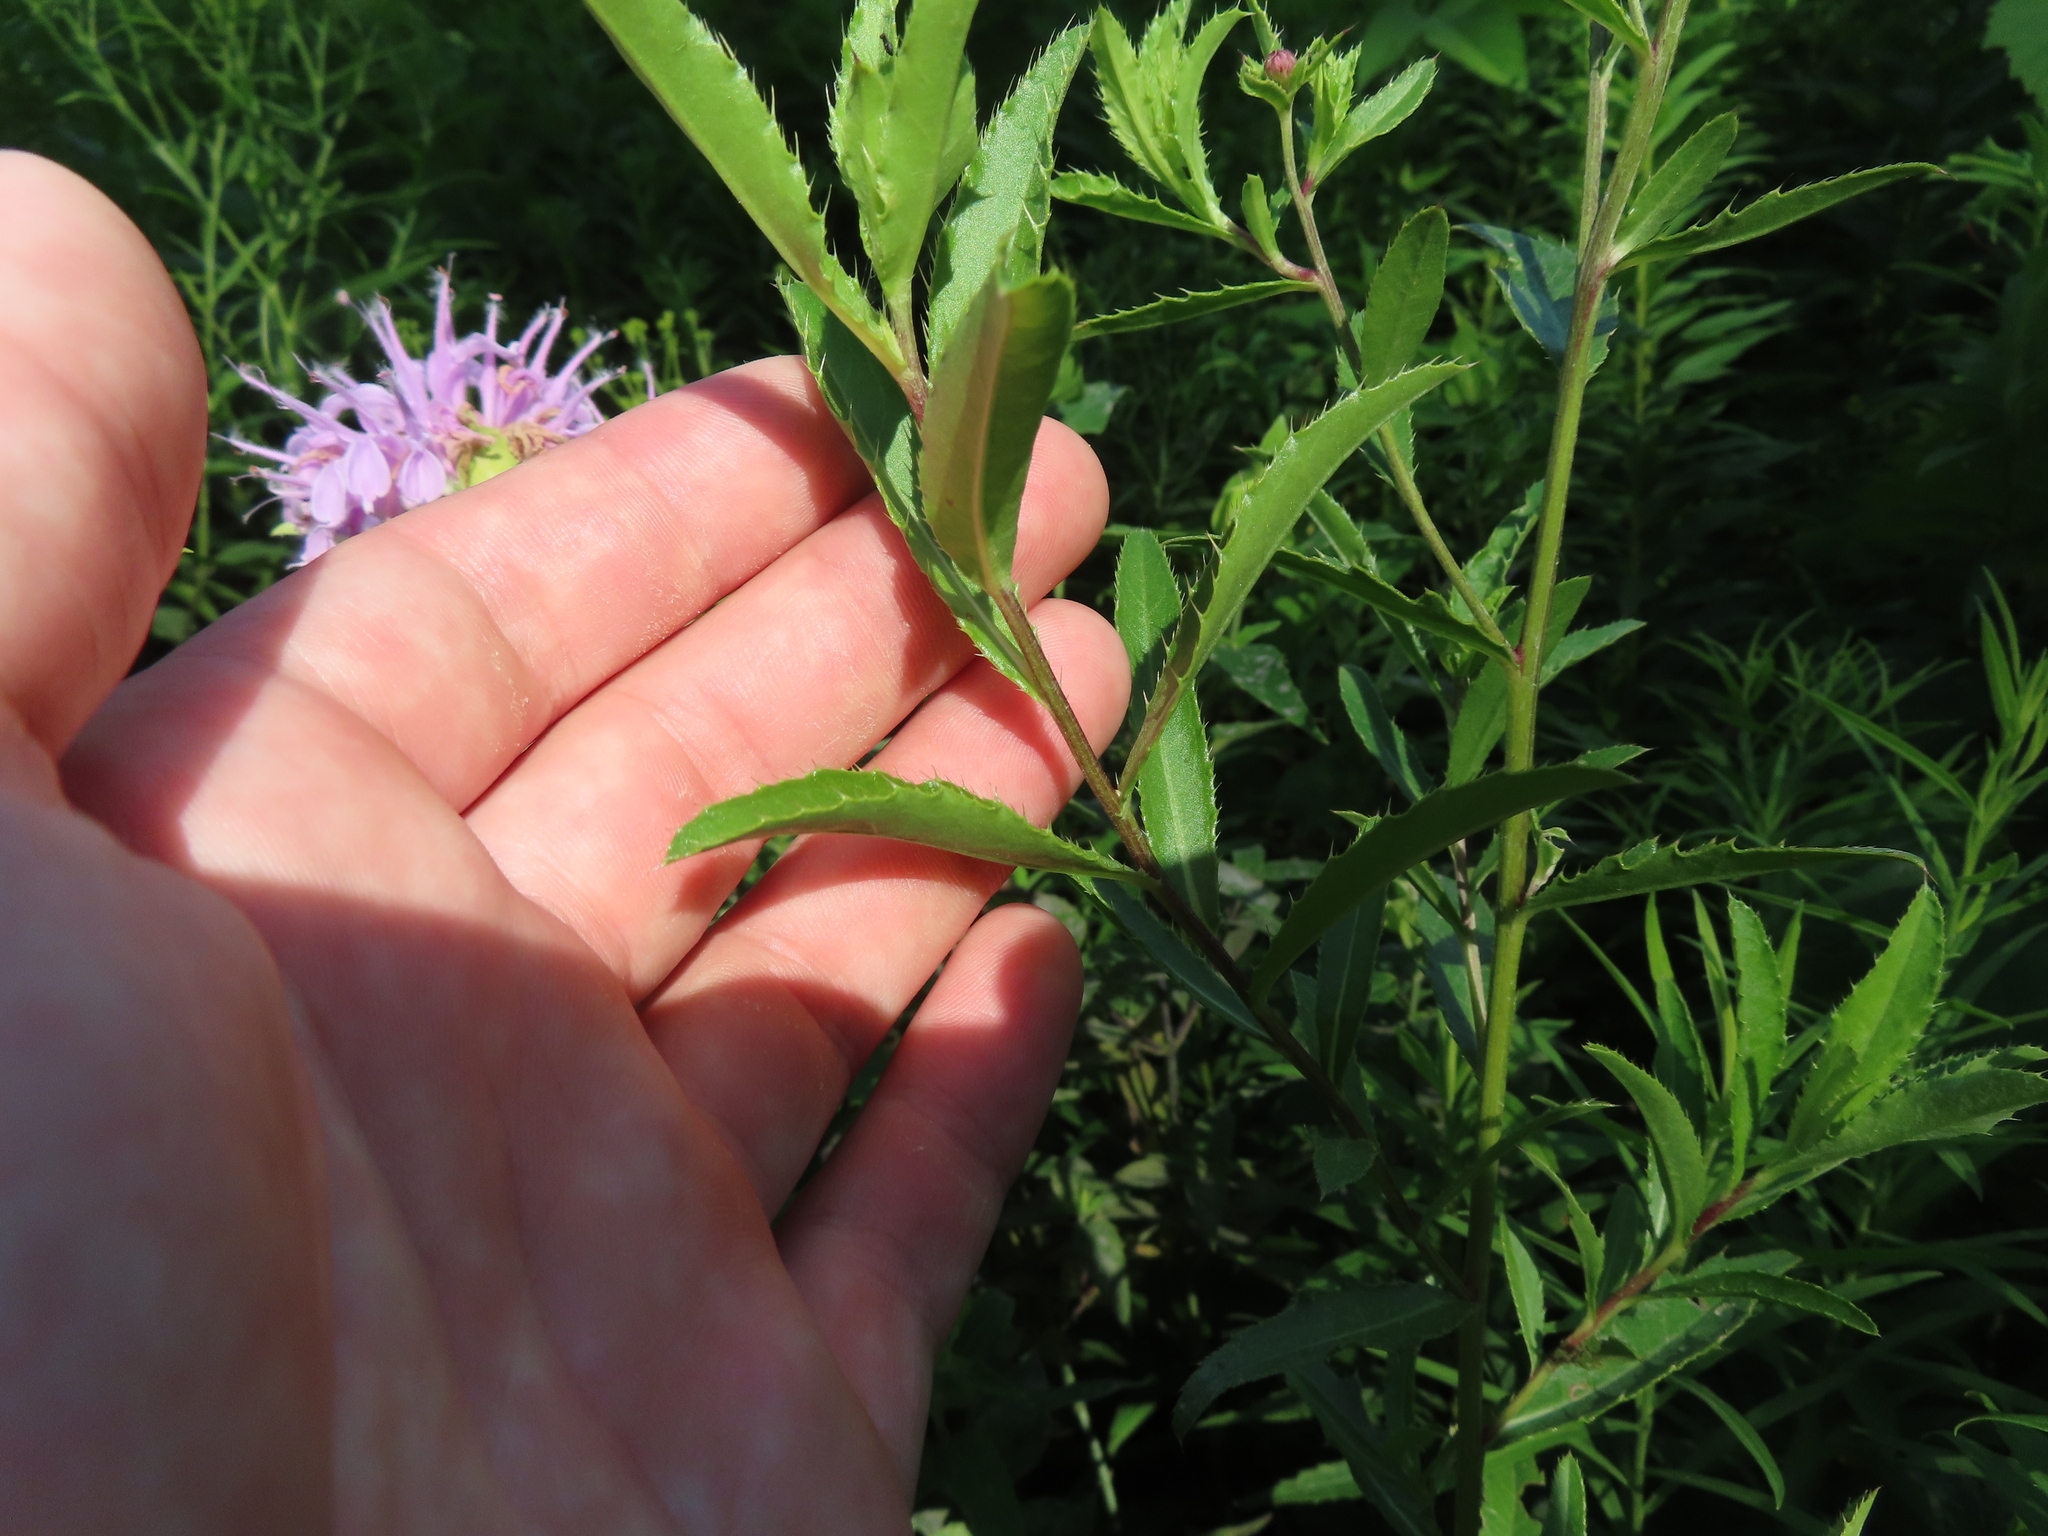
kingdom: Plantae
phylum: Tracheophyta
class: Magnoliopsida
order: Asterales
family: Asteraceae
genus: Cirsium
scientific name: Cirsium arvense
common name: Creeping thistle
